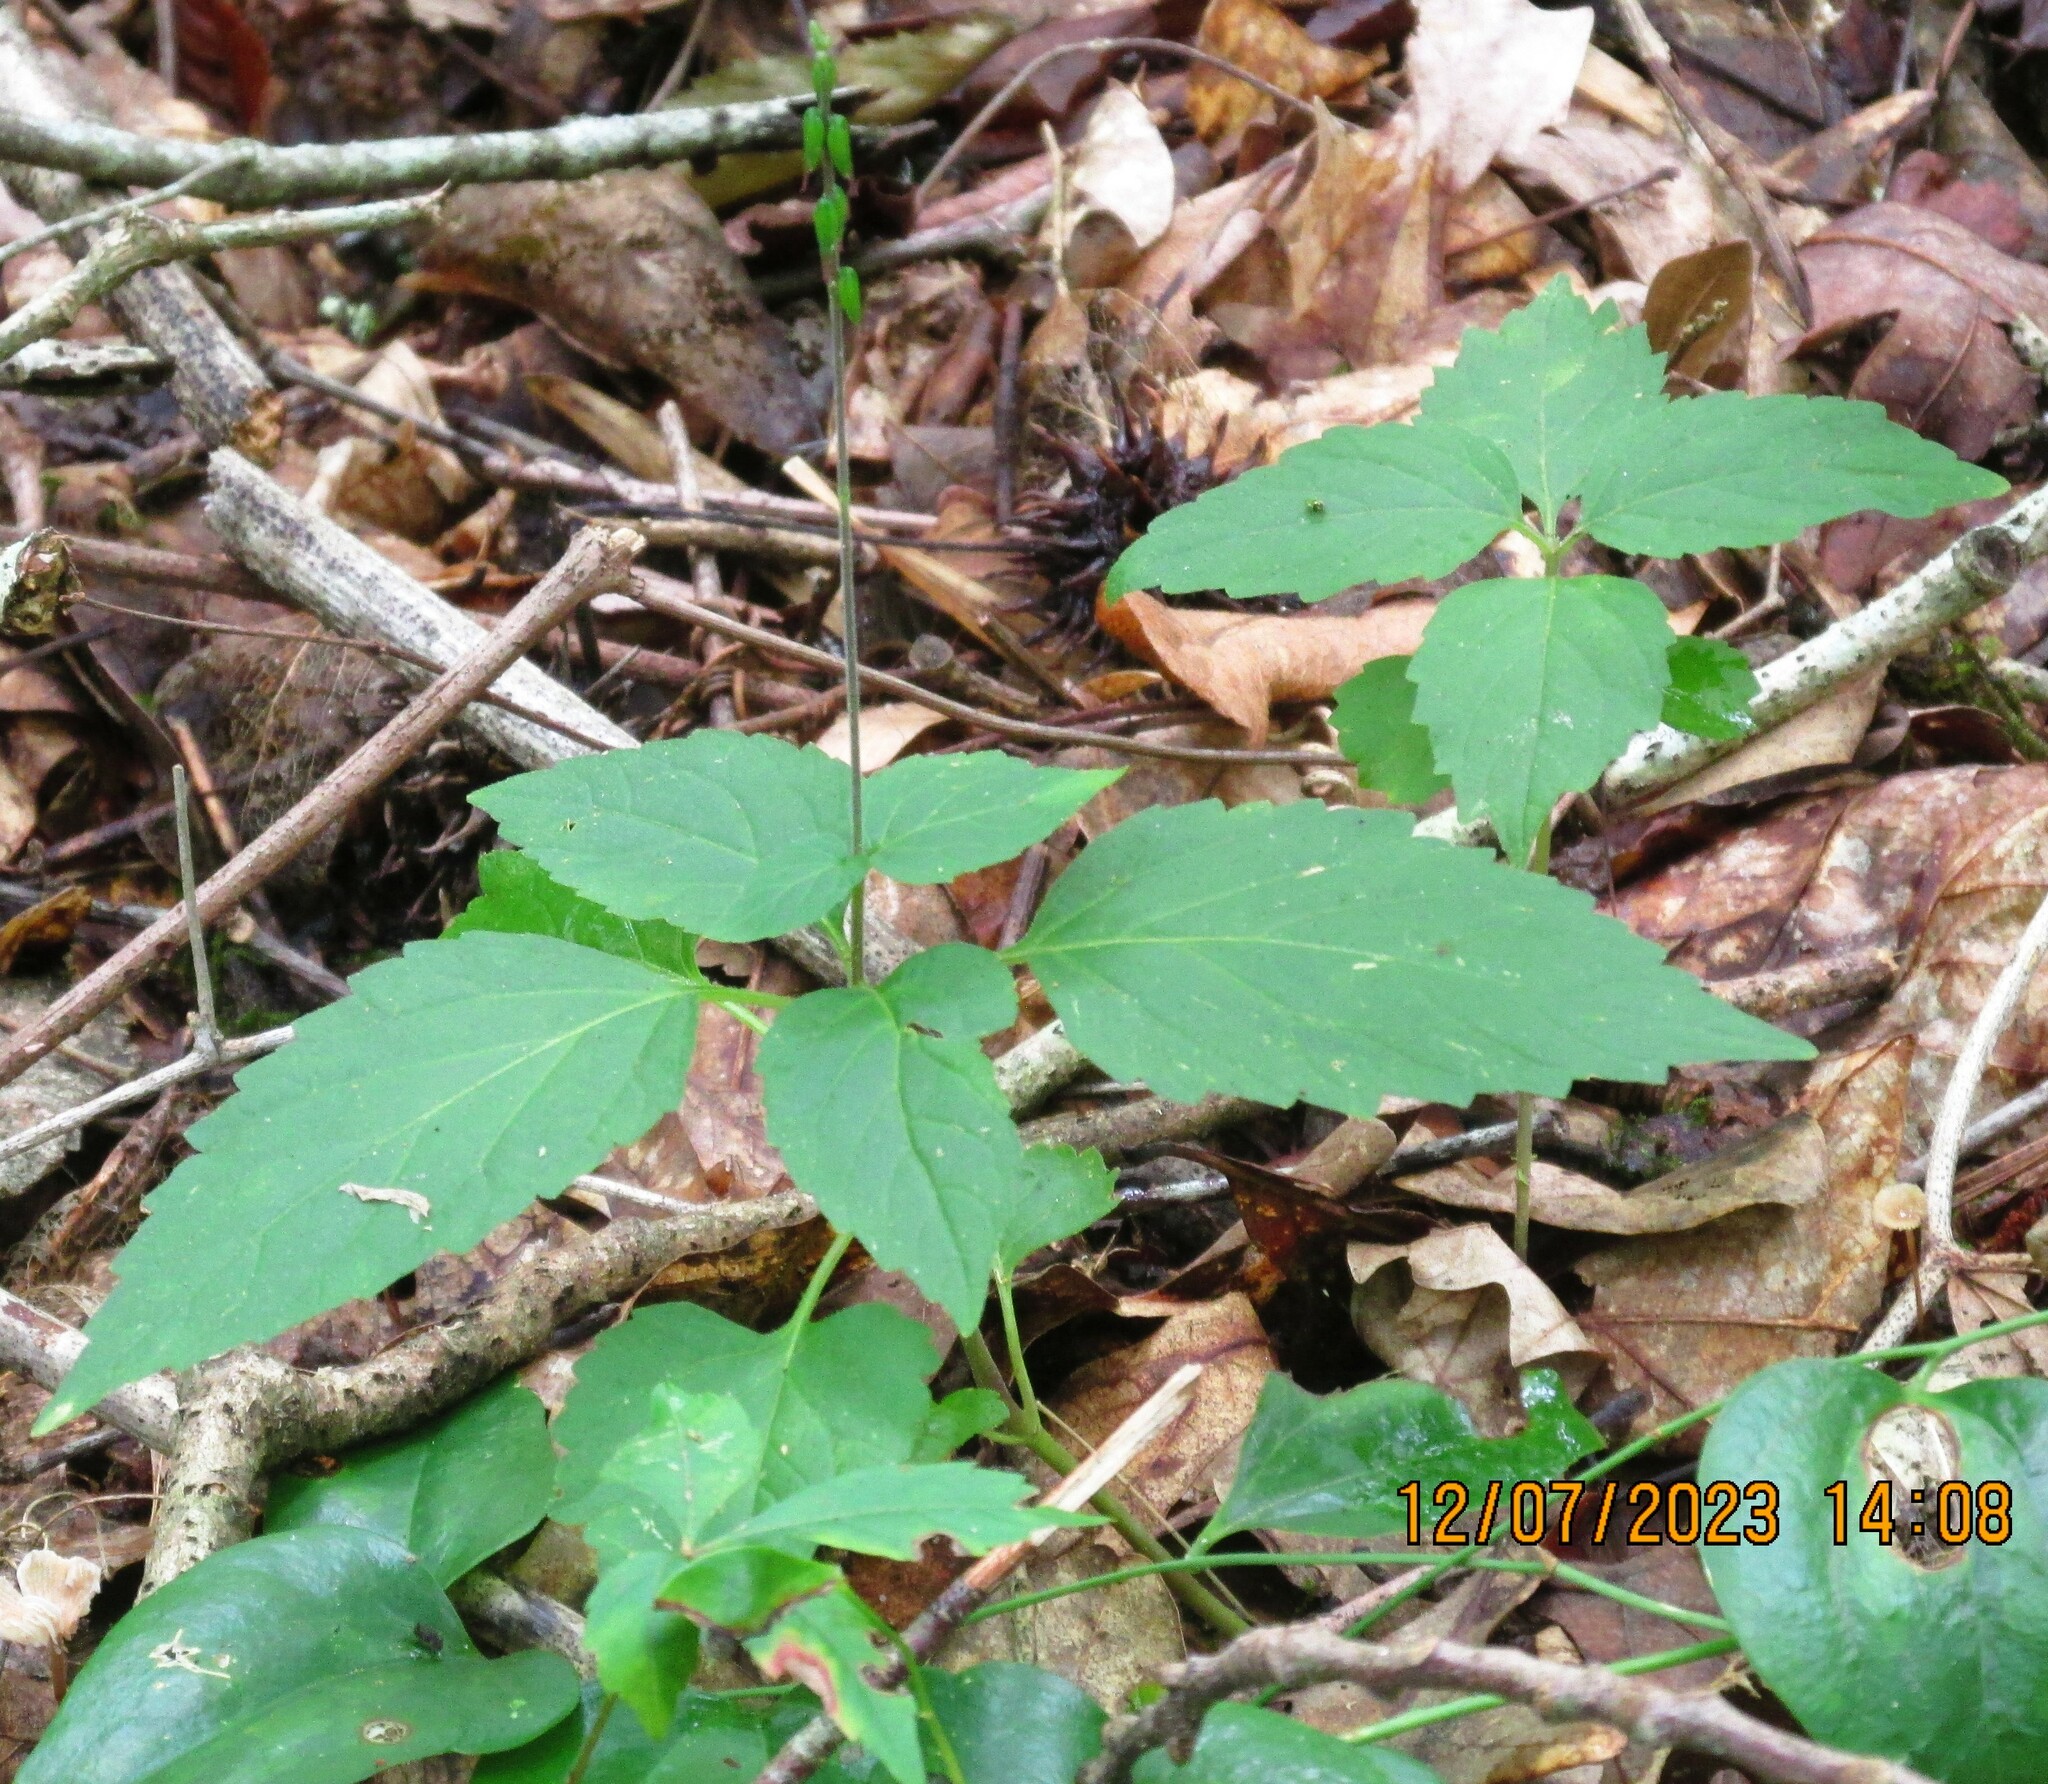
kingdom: Plantae
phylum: Tracheophyta
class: Magnoliopsida
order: Lamiales
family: Phrymaceae
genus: Phryma
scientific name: Phryma leptostachya
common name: American lopseed
